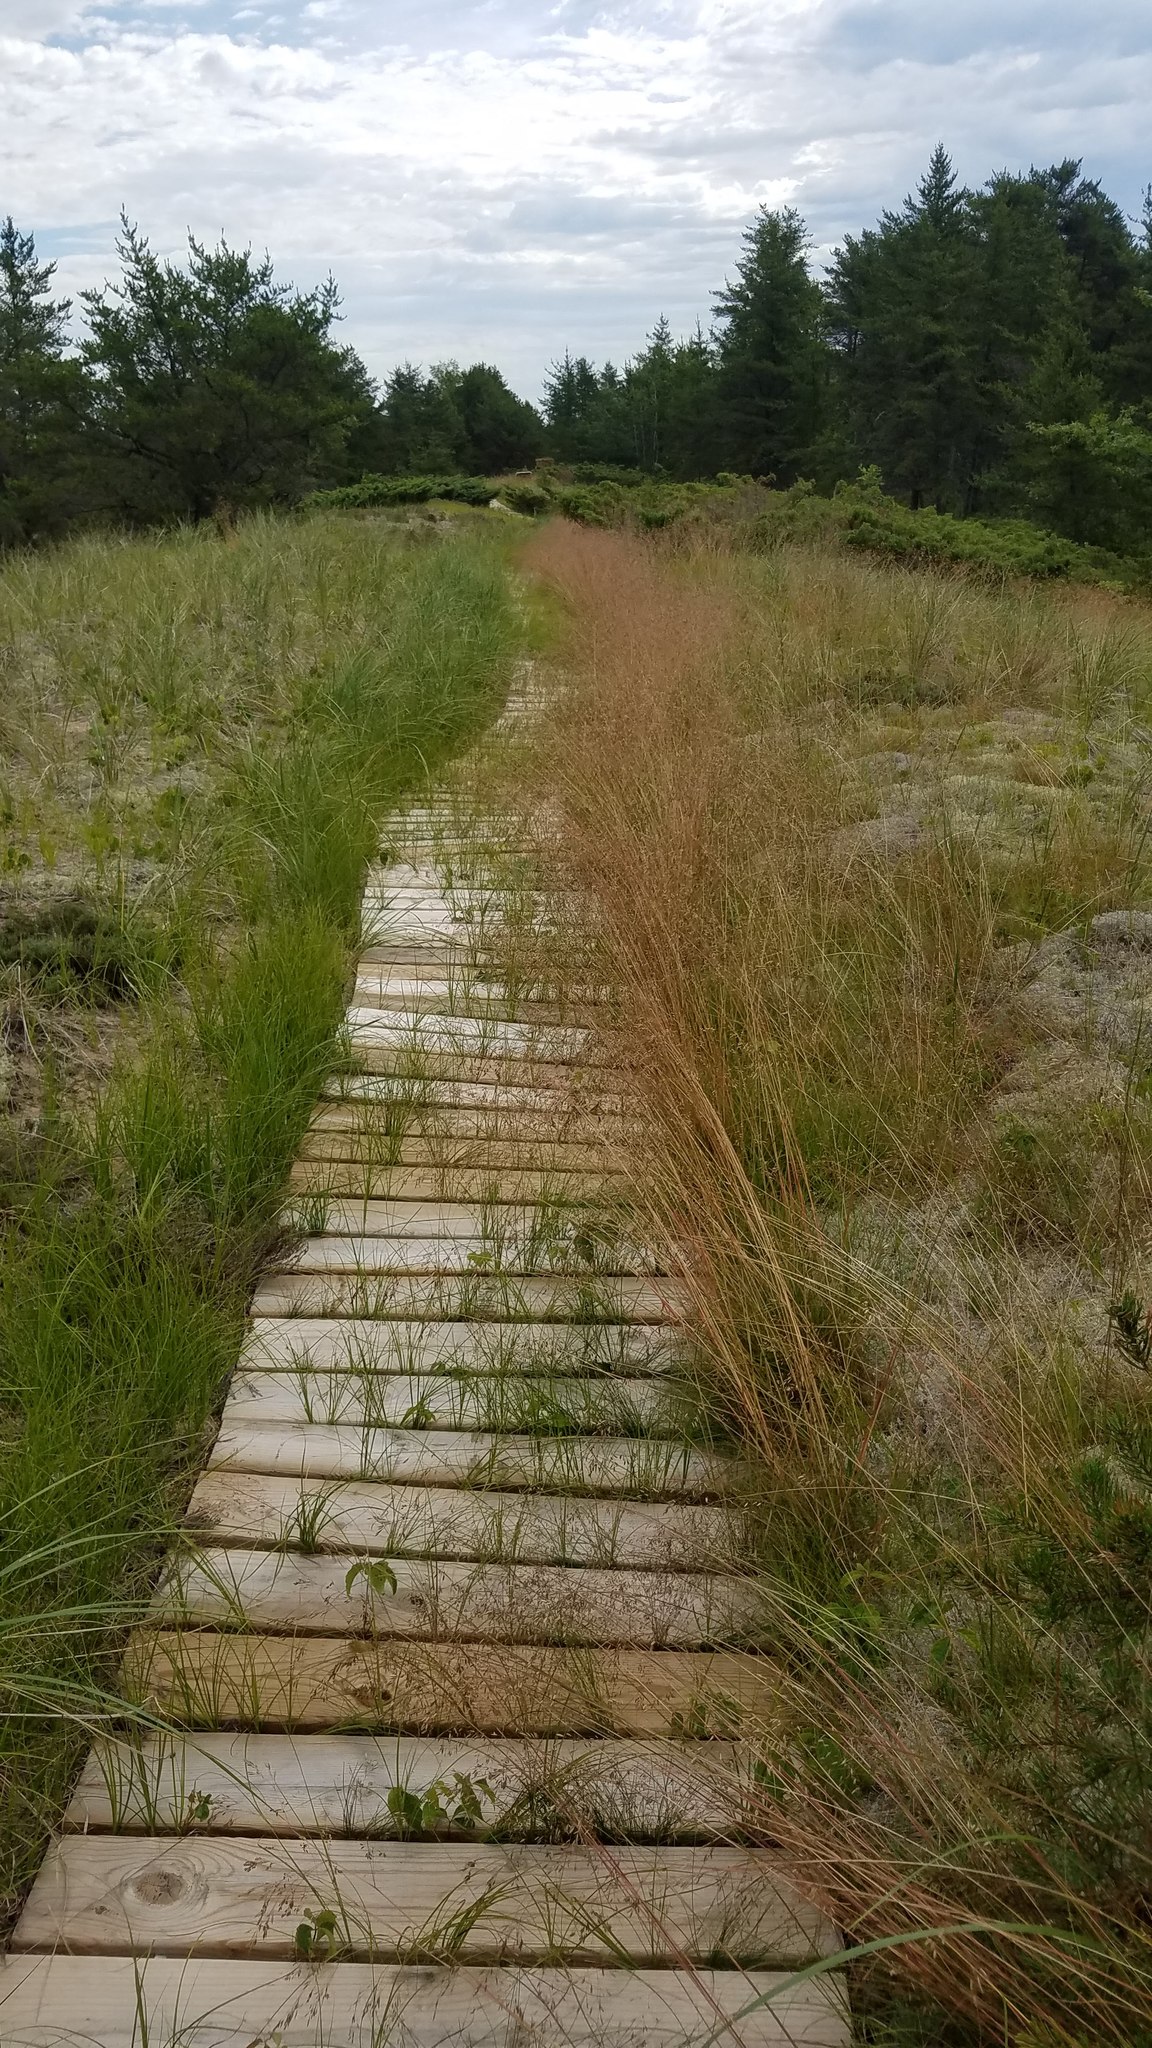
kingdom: Plantae
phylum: Tracheophyta
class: Liliopsida
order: Poales
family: Poaceae
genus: Avenella
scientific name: Avenella flexuosa
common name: Wavy hairgrass
